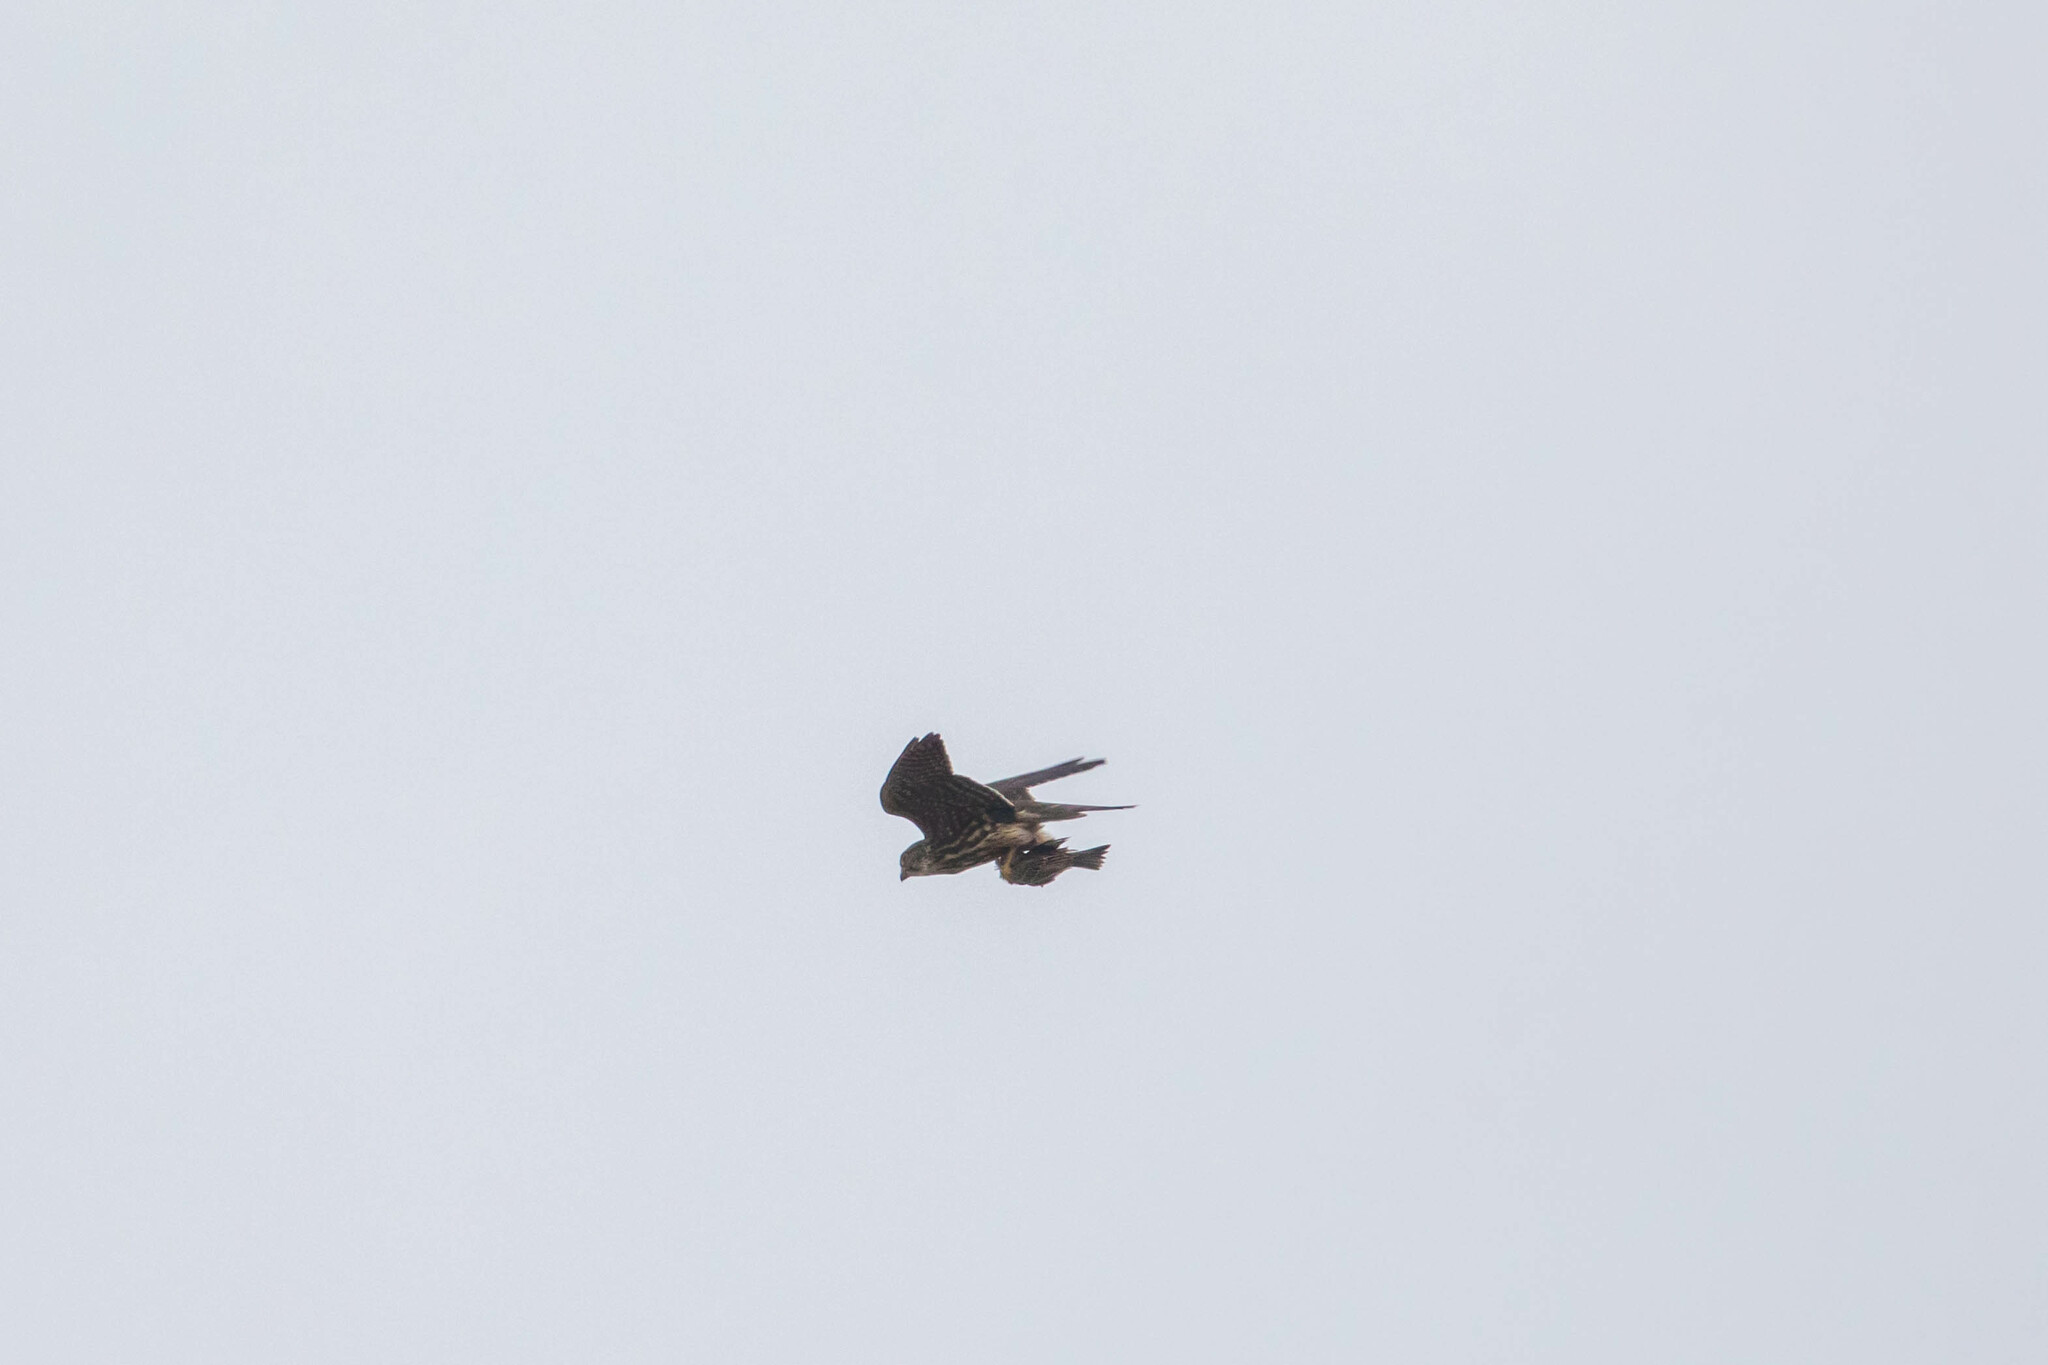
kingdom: Animalia
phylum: Chordata
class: Aves
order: Falconiformes
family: Falconidae
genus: Falco
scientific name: Falco columbarius
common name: Merlin
